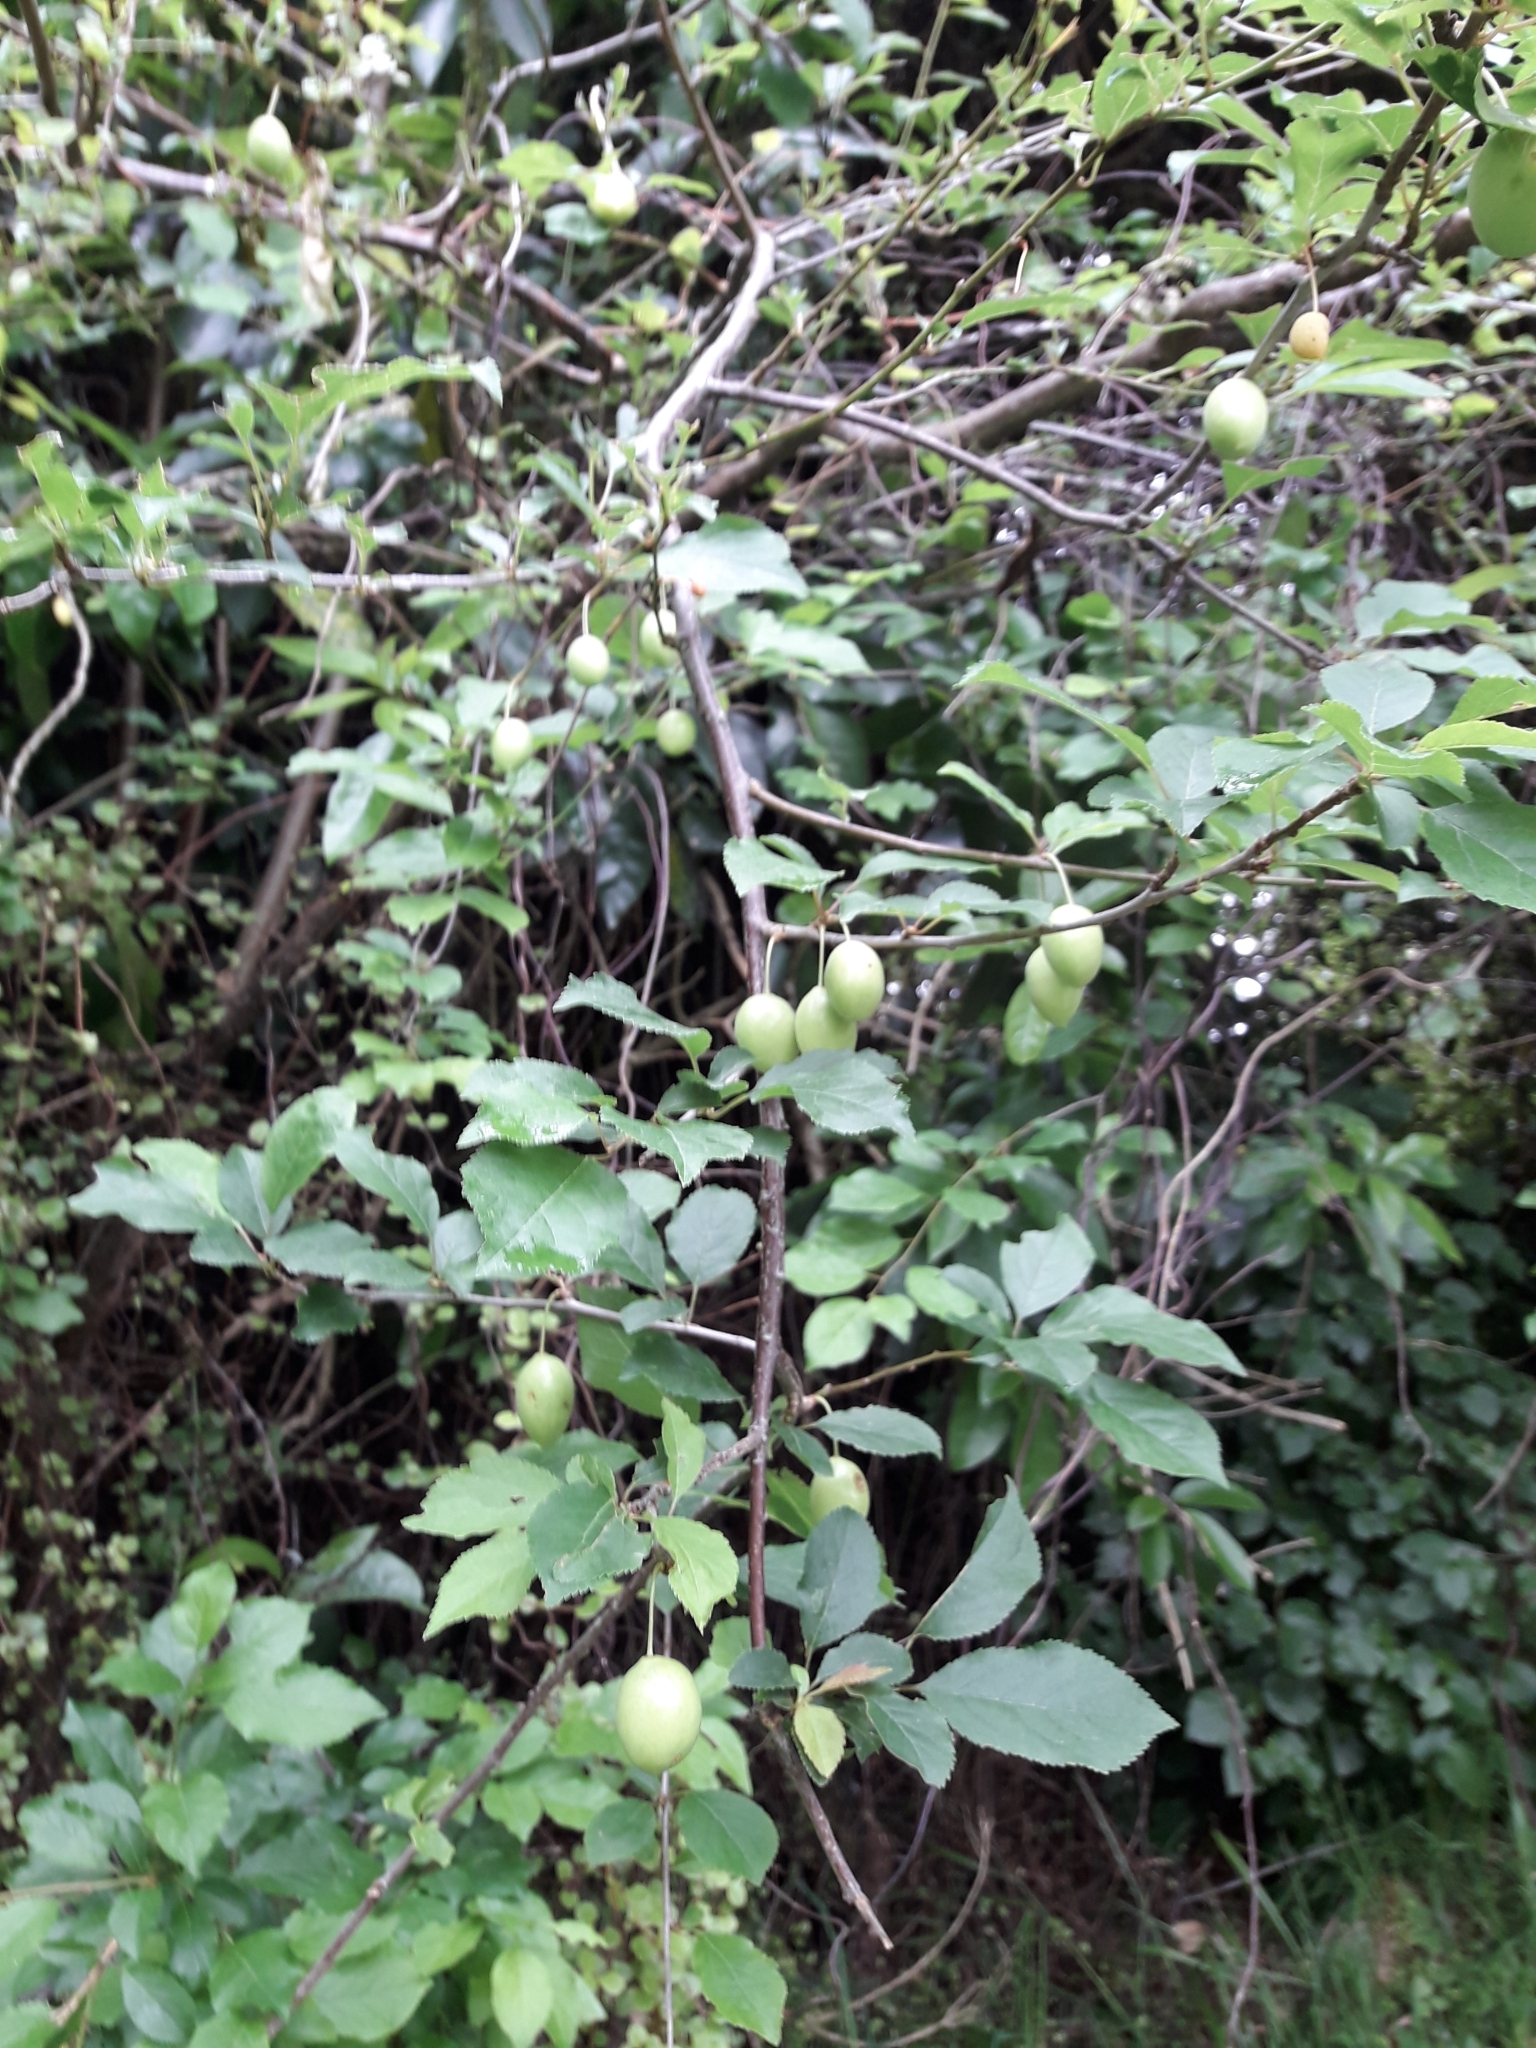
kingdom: Plantae
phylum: Tracheophyta
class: Magnoliopsida
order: Rosales
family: Rosaceae
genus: Prunus
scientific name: Prunus domestica
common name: Wild plum
